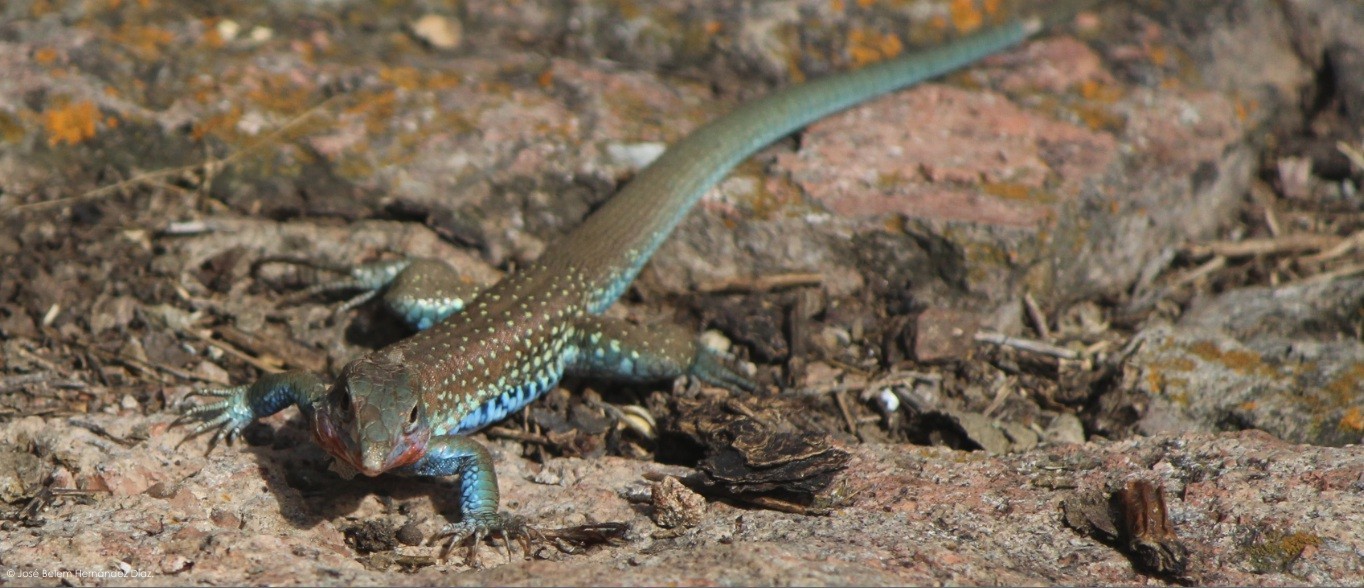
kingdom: Animalia
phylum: Chordata
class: Squamata
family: Teiidae
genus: Aspidoscelis
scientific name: Aspidoscelis gularis
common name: Eastern spotted whiptail
